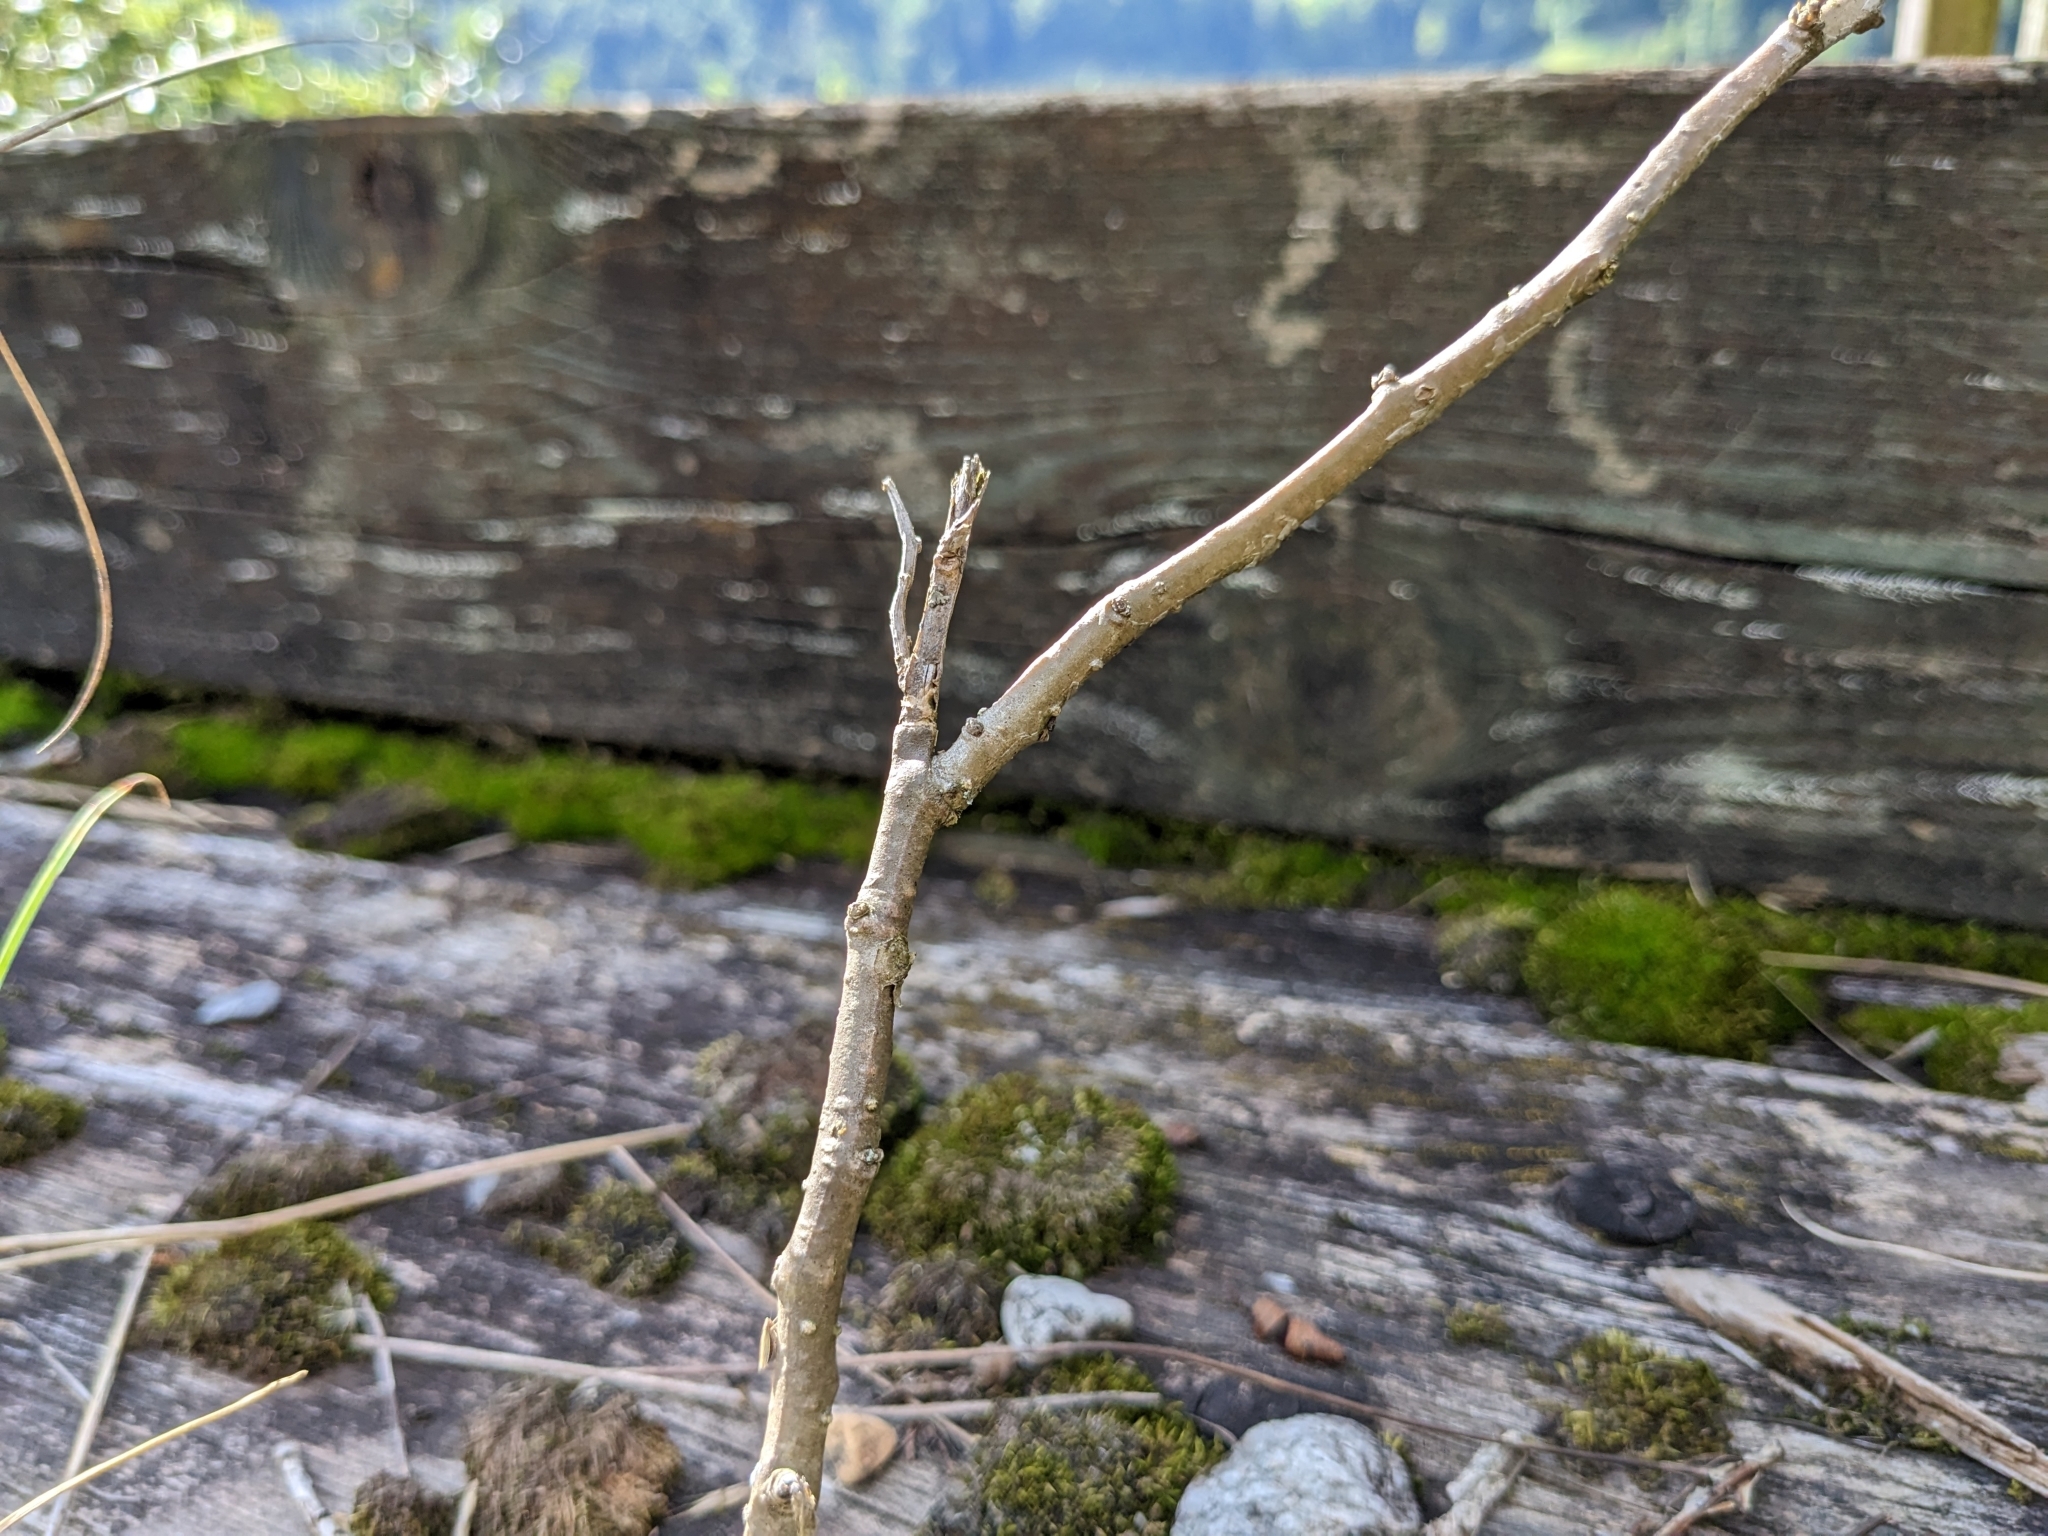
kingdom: Plantae
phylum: Tracheophyta
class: Magnoliopsida
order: Solanales
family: Solanaceae
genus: Solanum
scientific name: Solanum dulcamara
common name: Climbing nightshade
